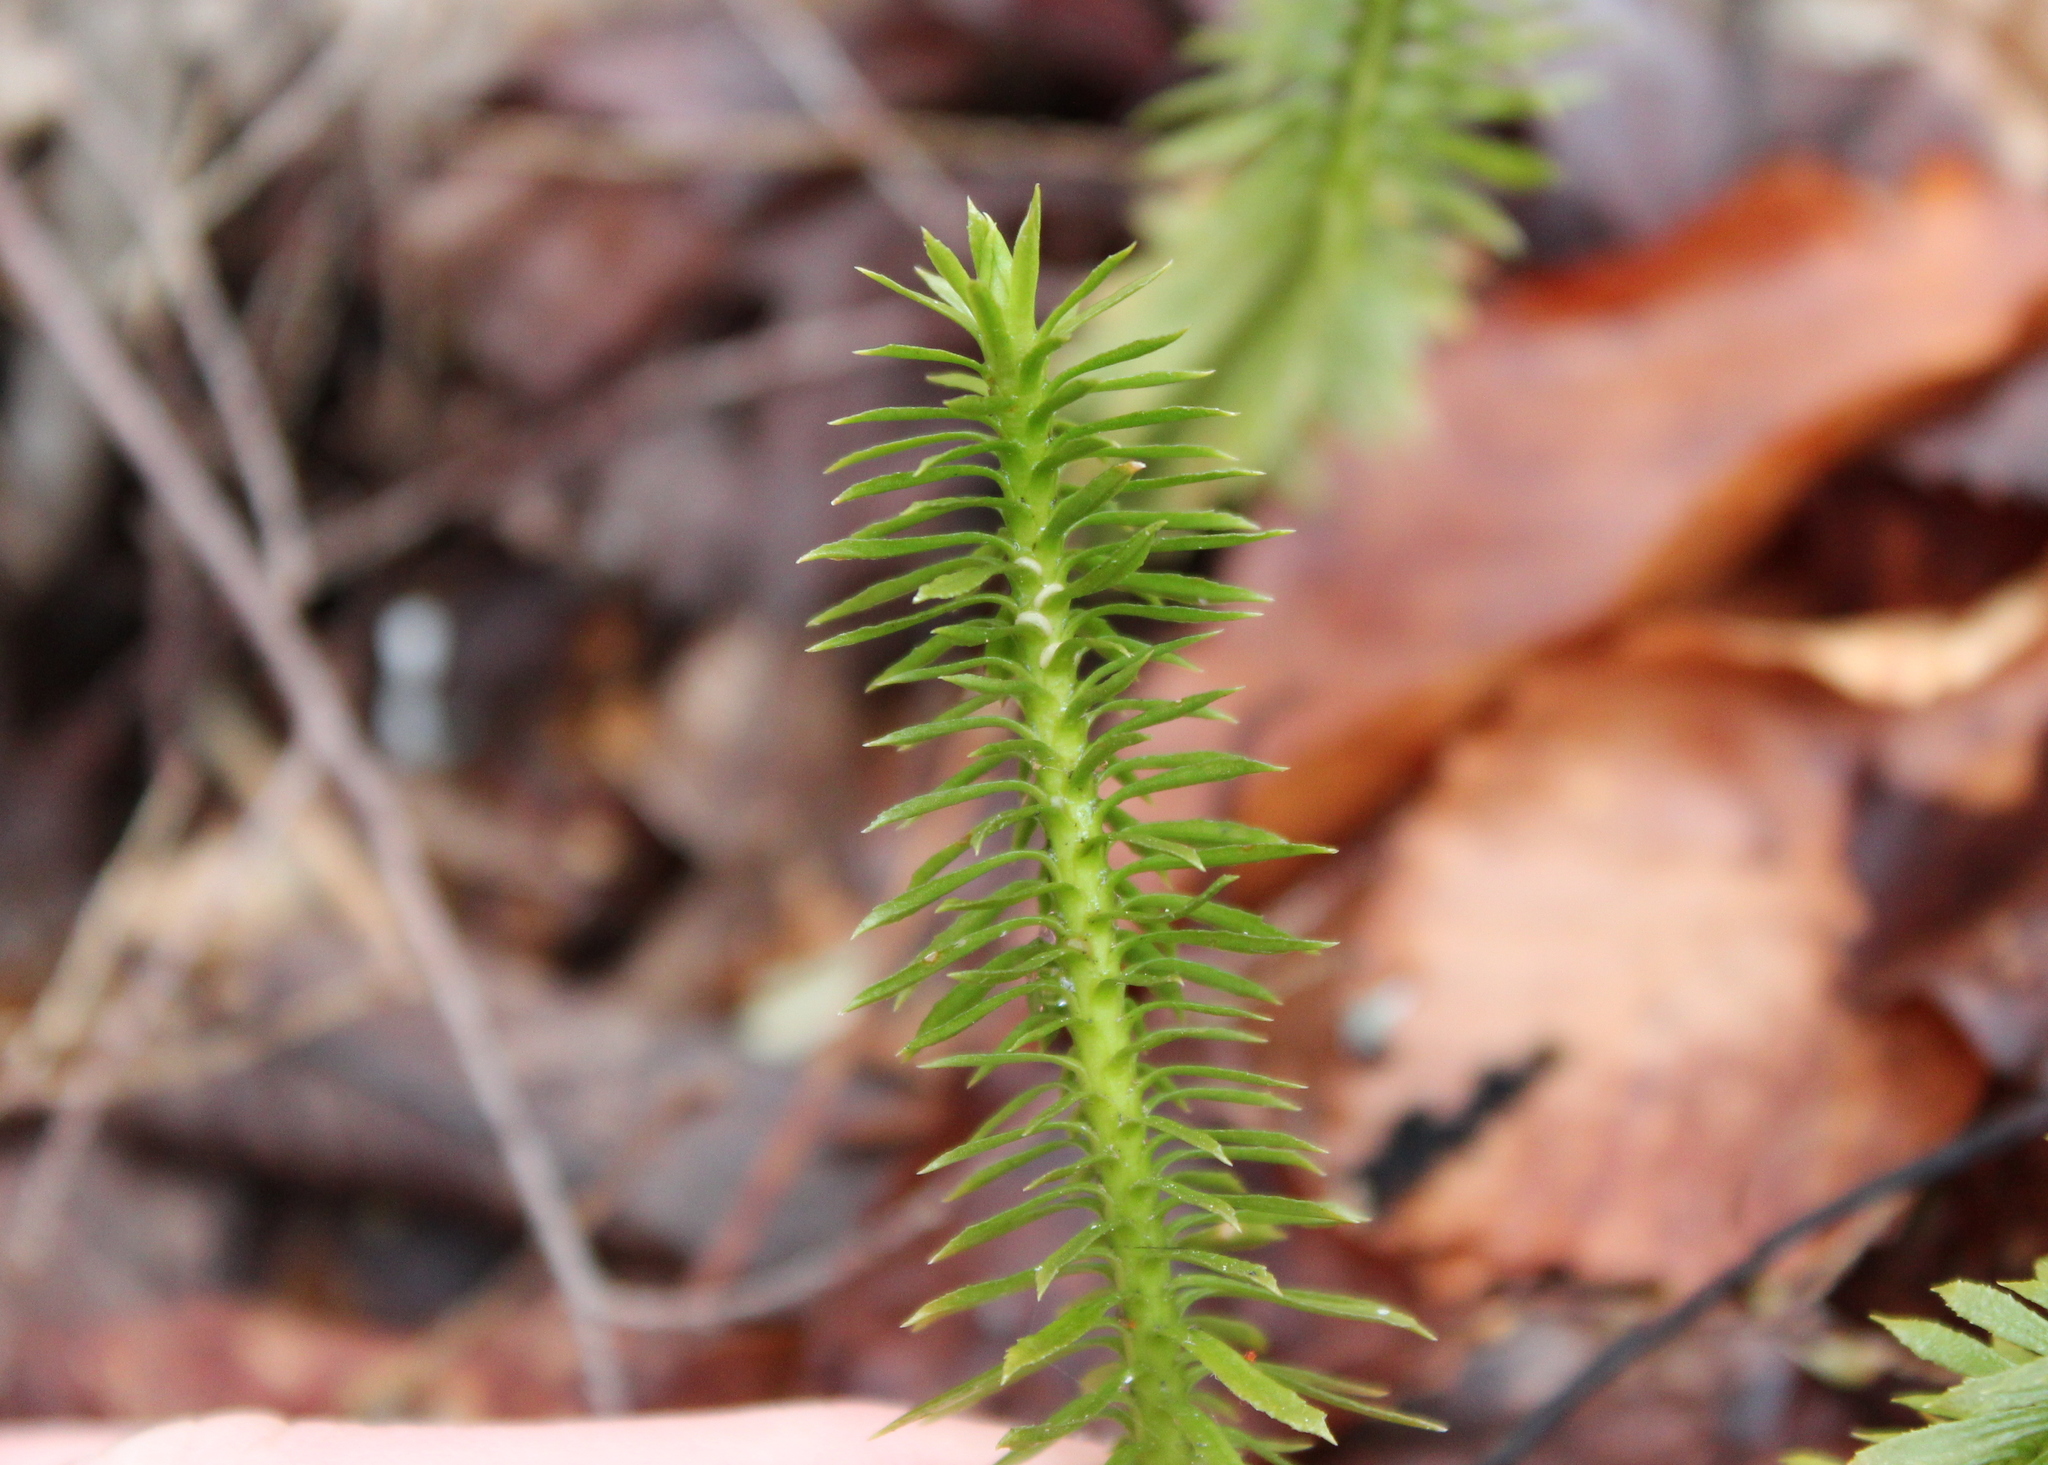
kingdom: Plantae
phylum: Tracheophyta
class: Lycopodiopsida
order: Lycopodiales
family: Lycopodiaceae
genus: Huperzia
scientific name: Huperzia lucidula
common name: Shining clubmoss
